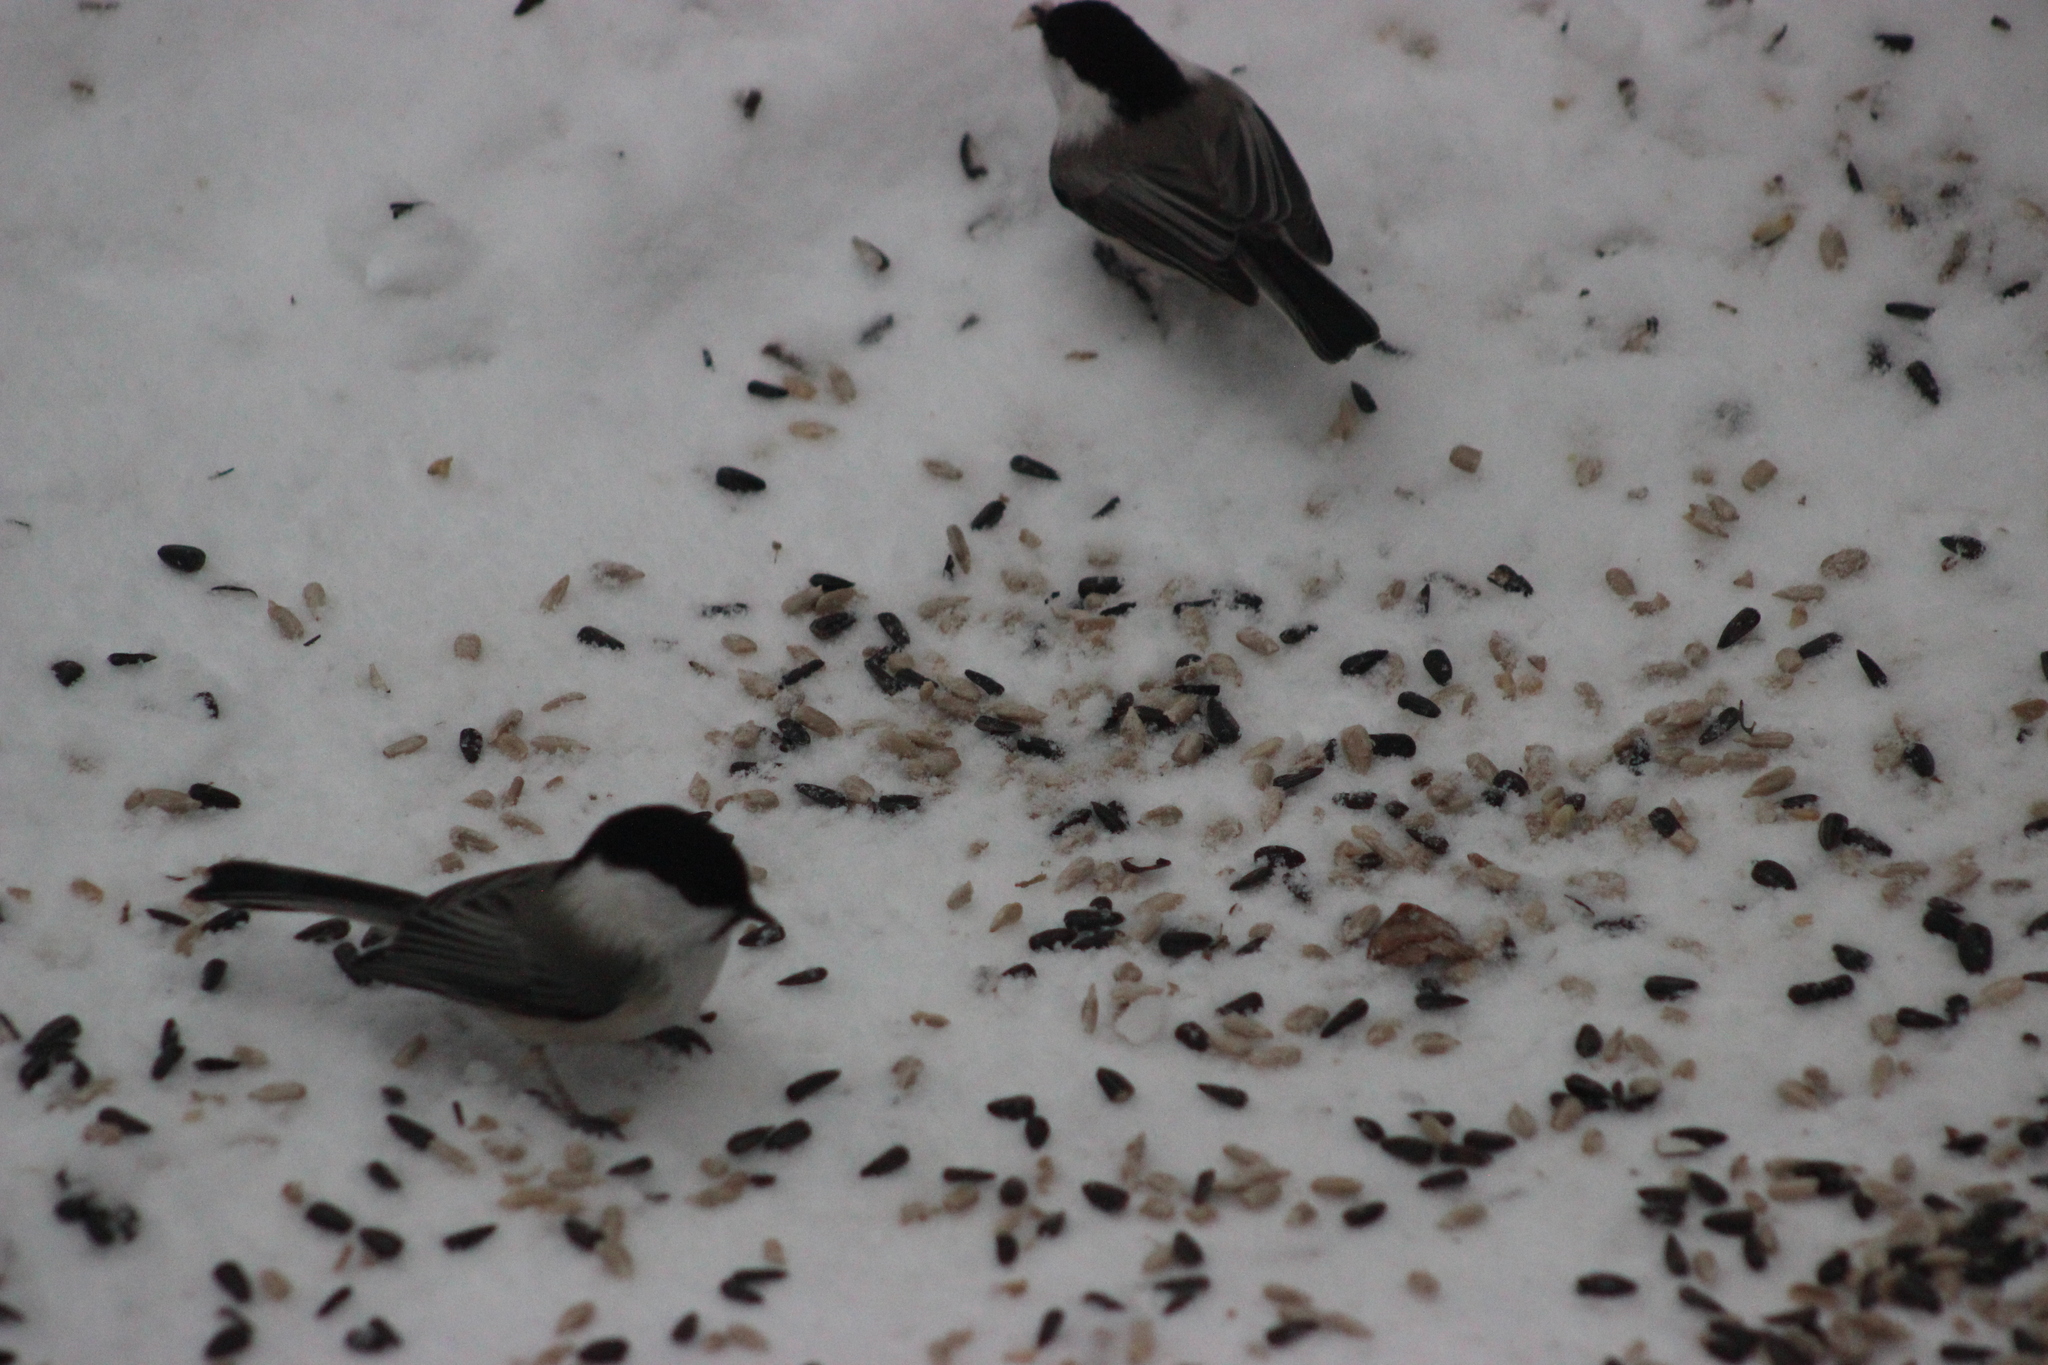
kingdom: Animalia
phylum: Chordata
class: Aves
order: Passeriformes
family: Paridae
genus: Poecile
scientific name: Poecile montanus
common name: Willow tit
